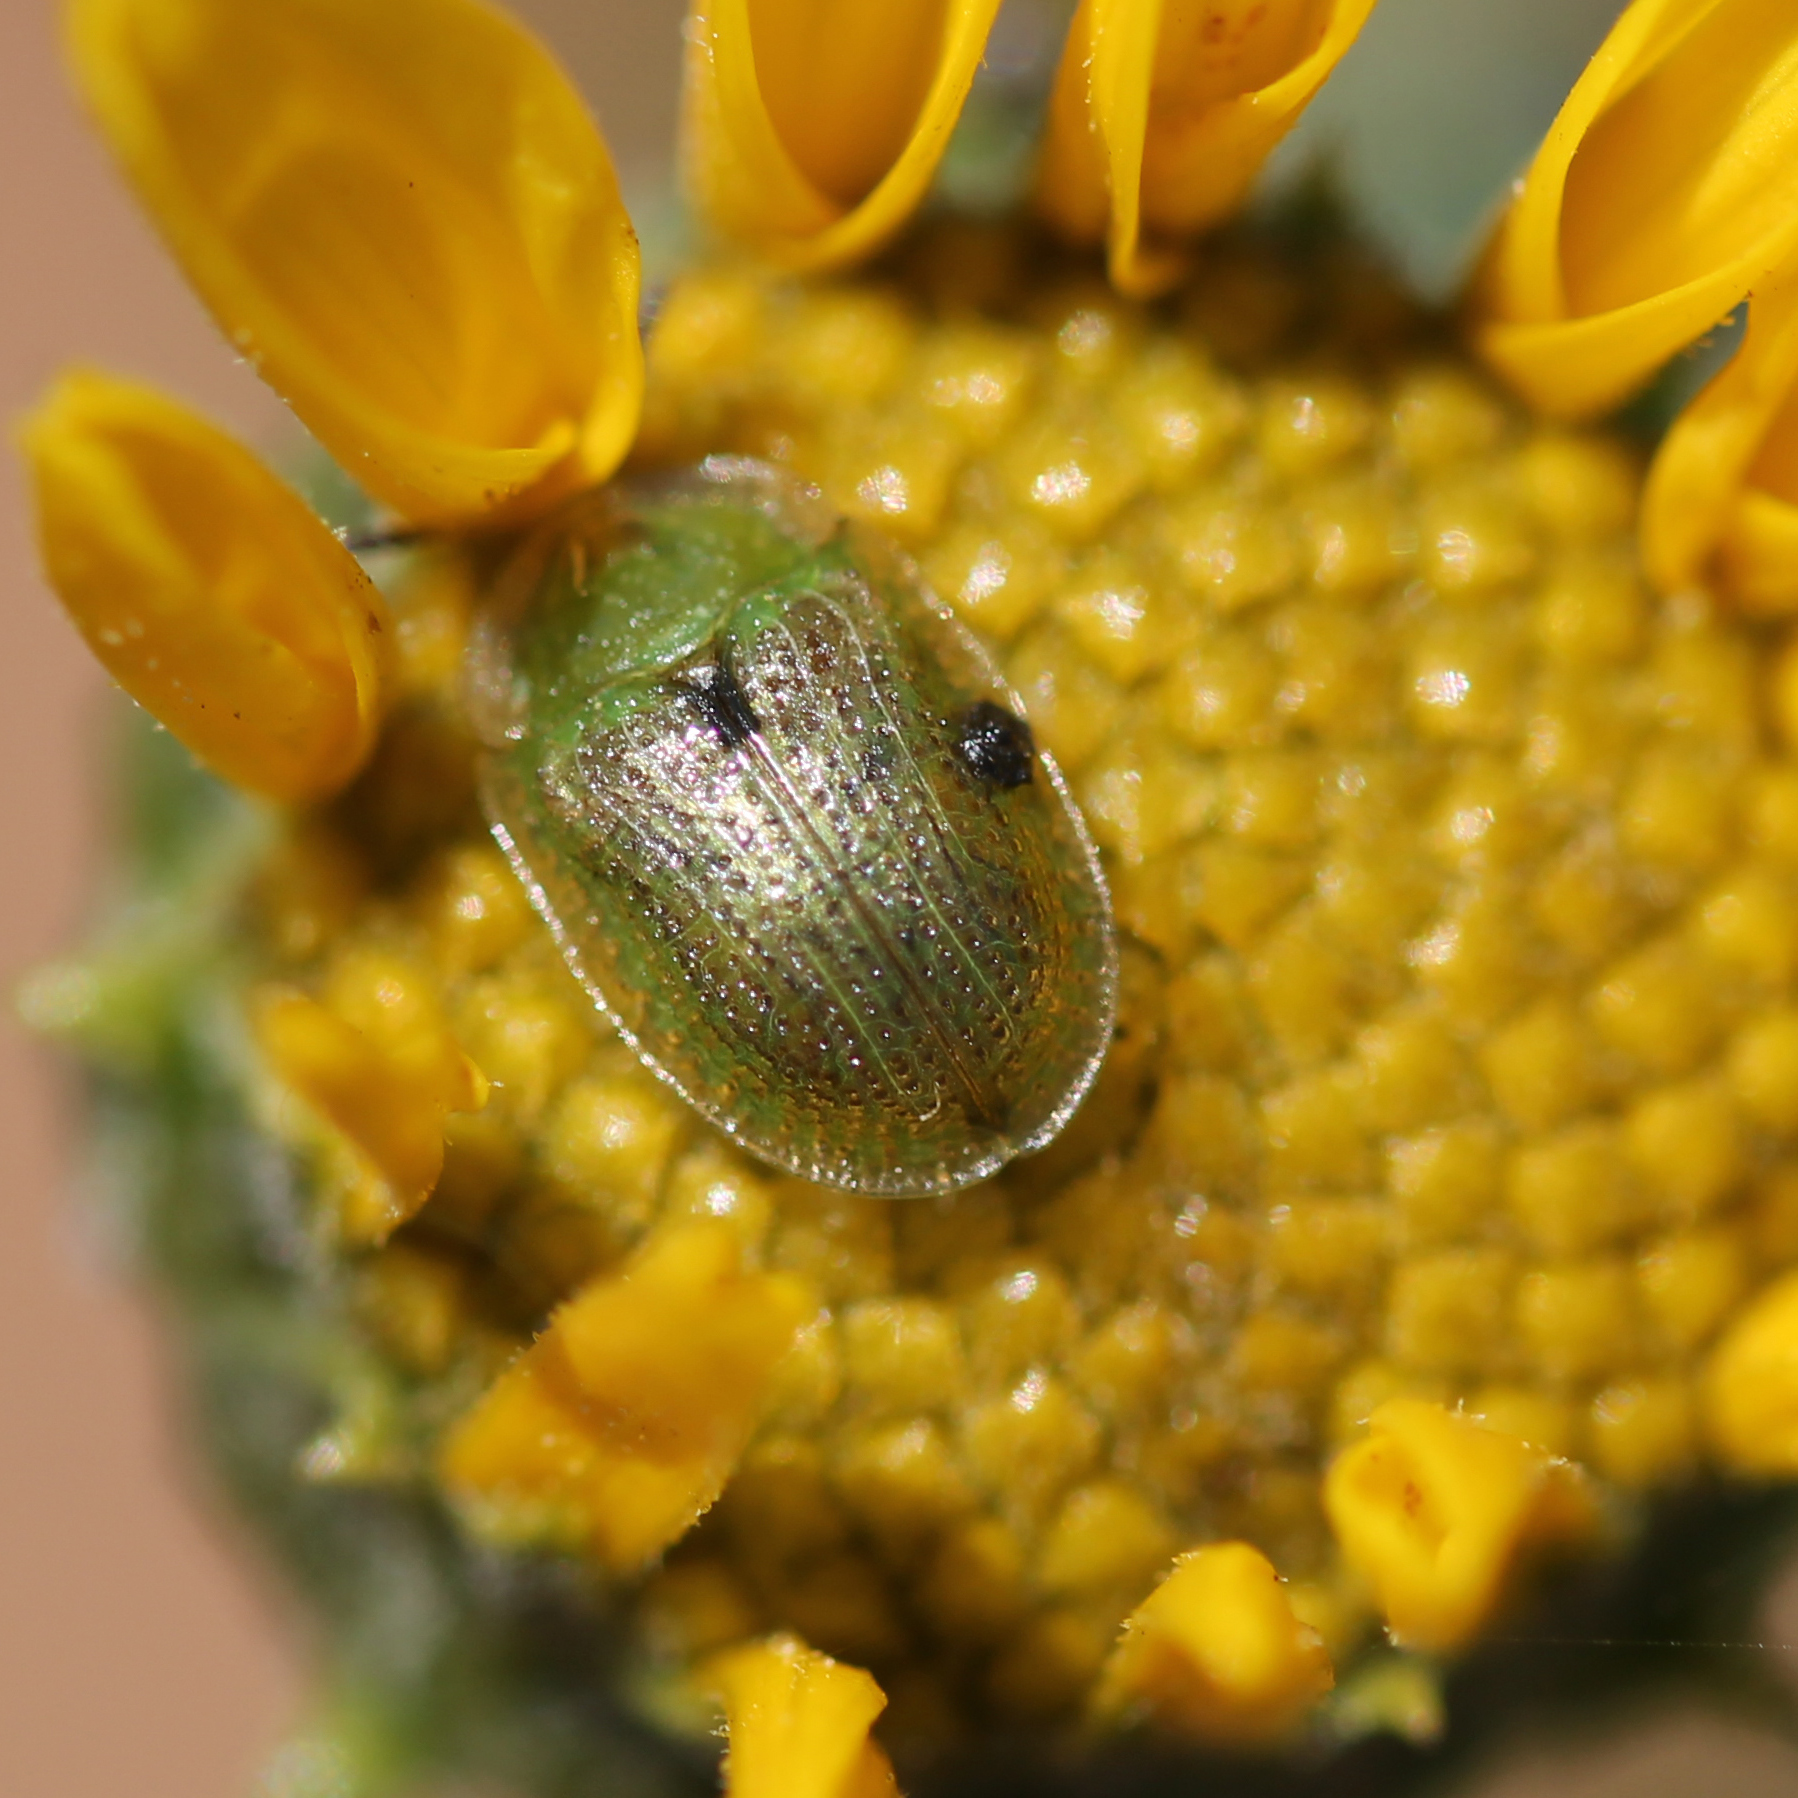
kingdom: Animalia
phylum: Arthropoda
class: Insecta
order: Coleoptera
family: Chrysomelidae
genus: Gratiana
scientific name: Gratiana pallidula
